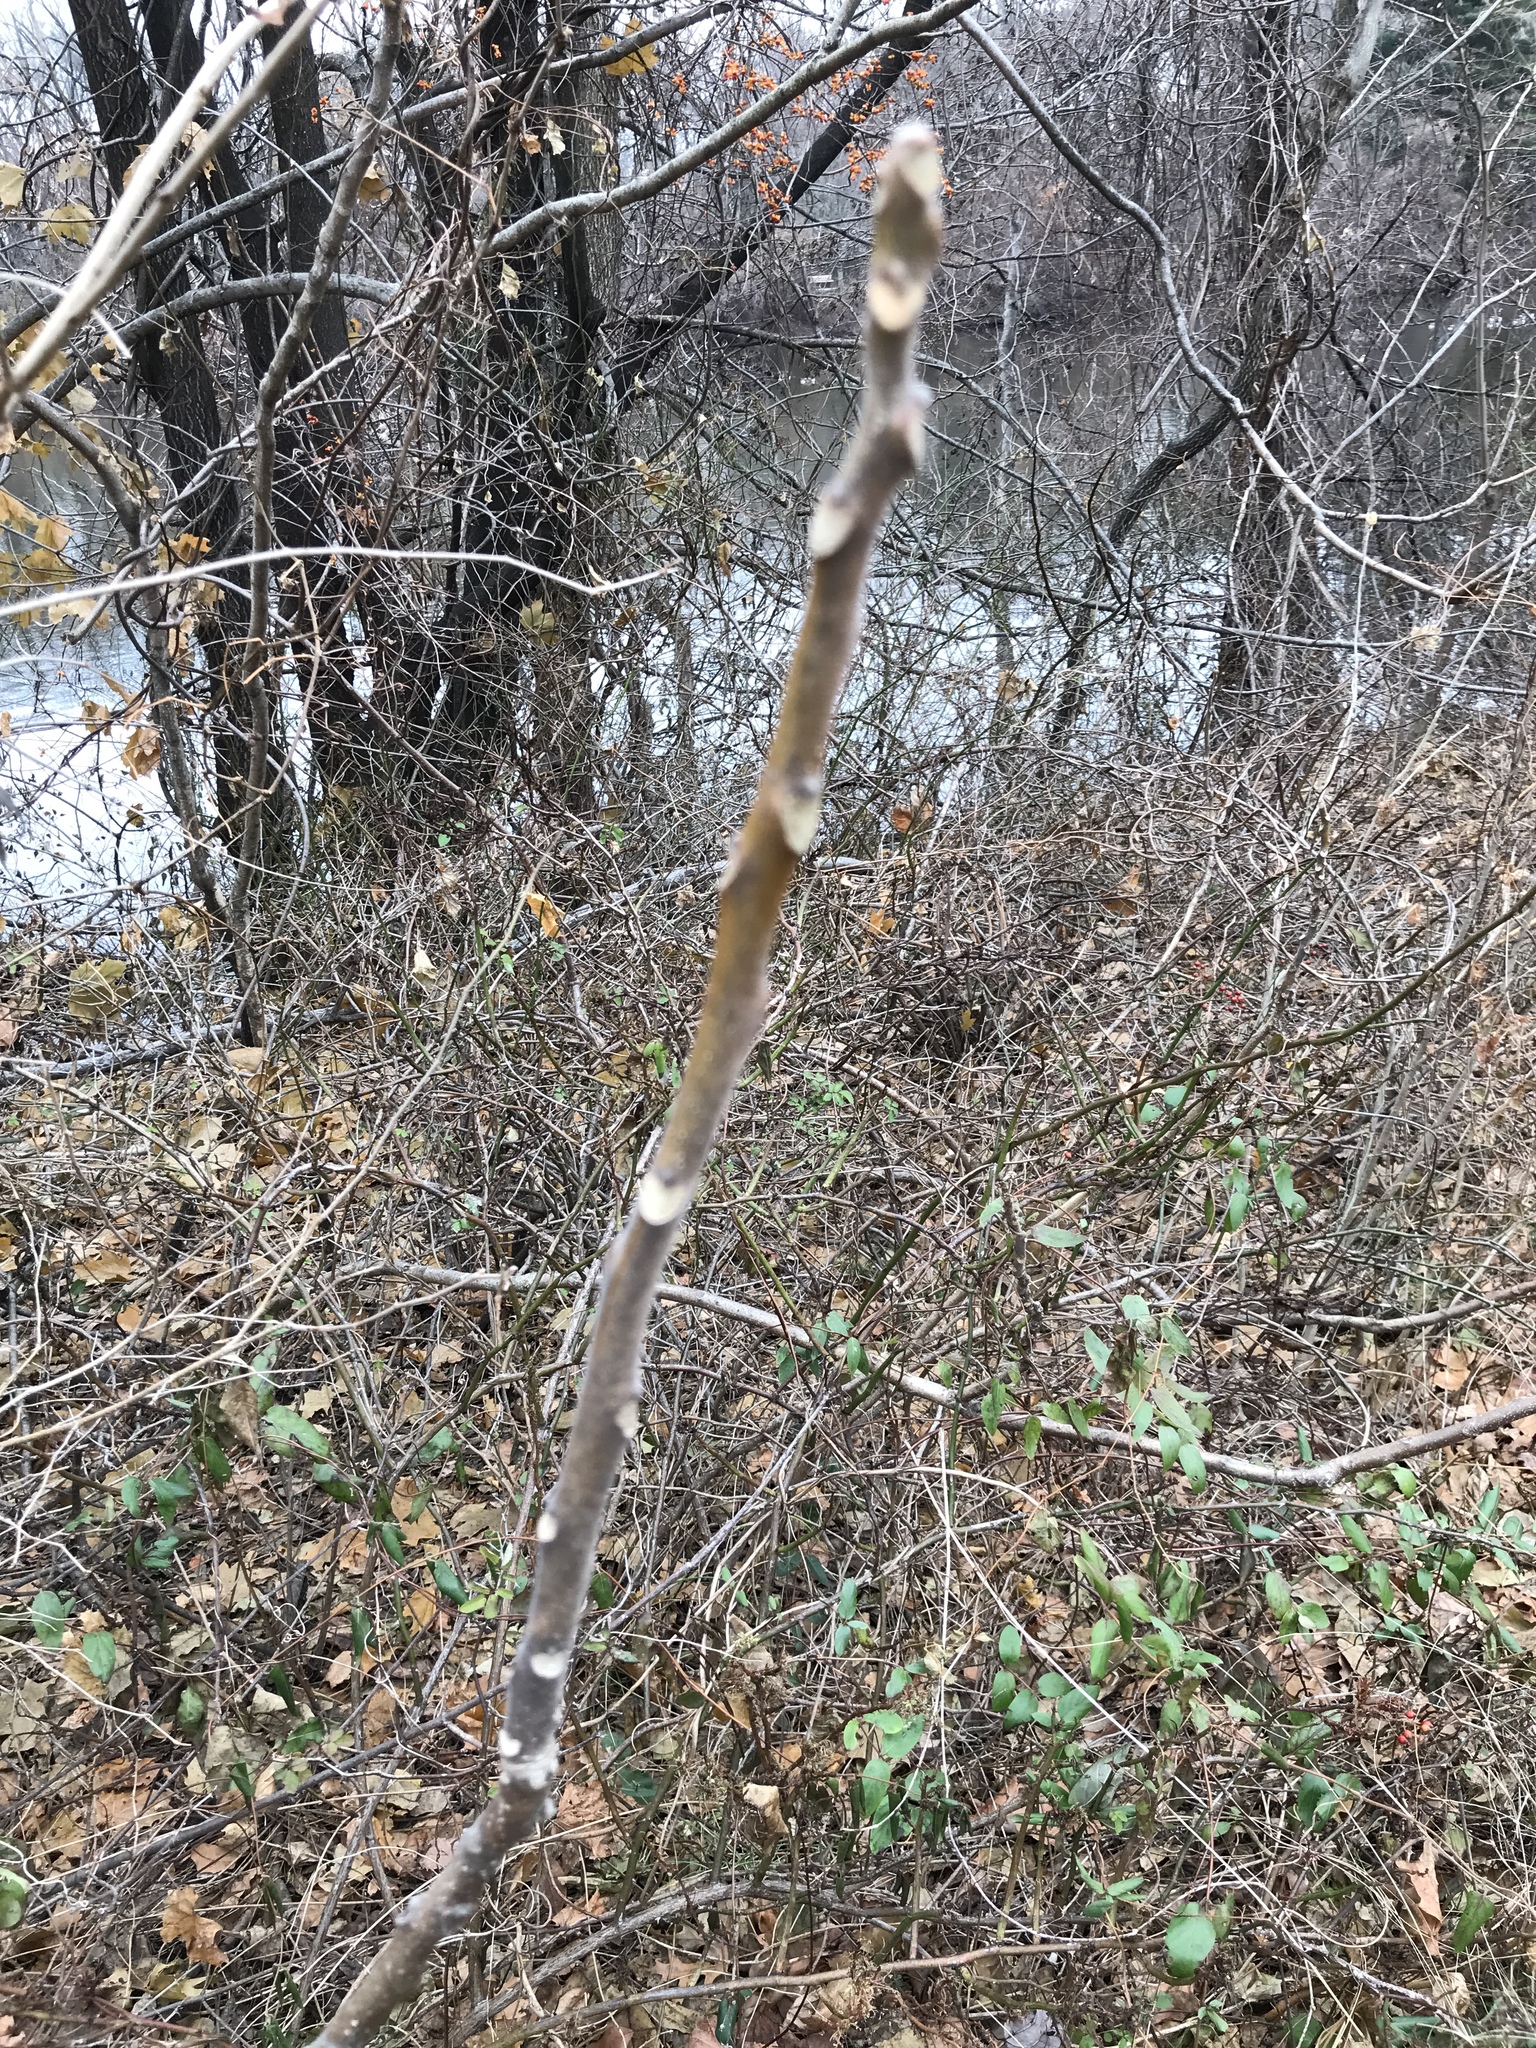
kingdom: Plantae
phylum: Tracheophyta
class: Magnoliopsida
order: Sapindales
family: Simaroubaceae
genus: Ailanthus
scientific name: Ailanthus altissima
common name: Tree-of-heaven
